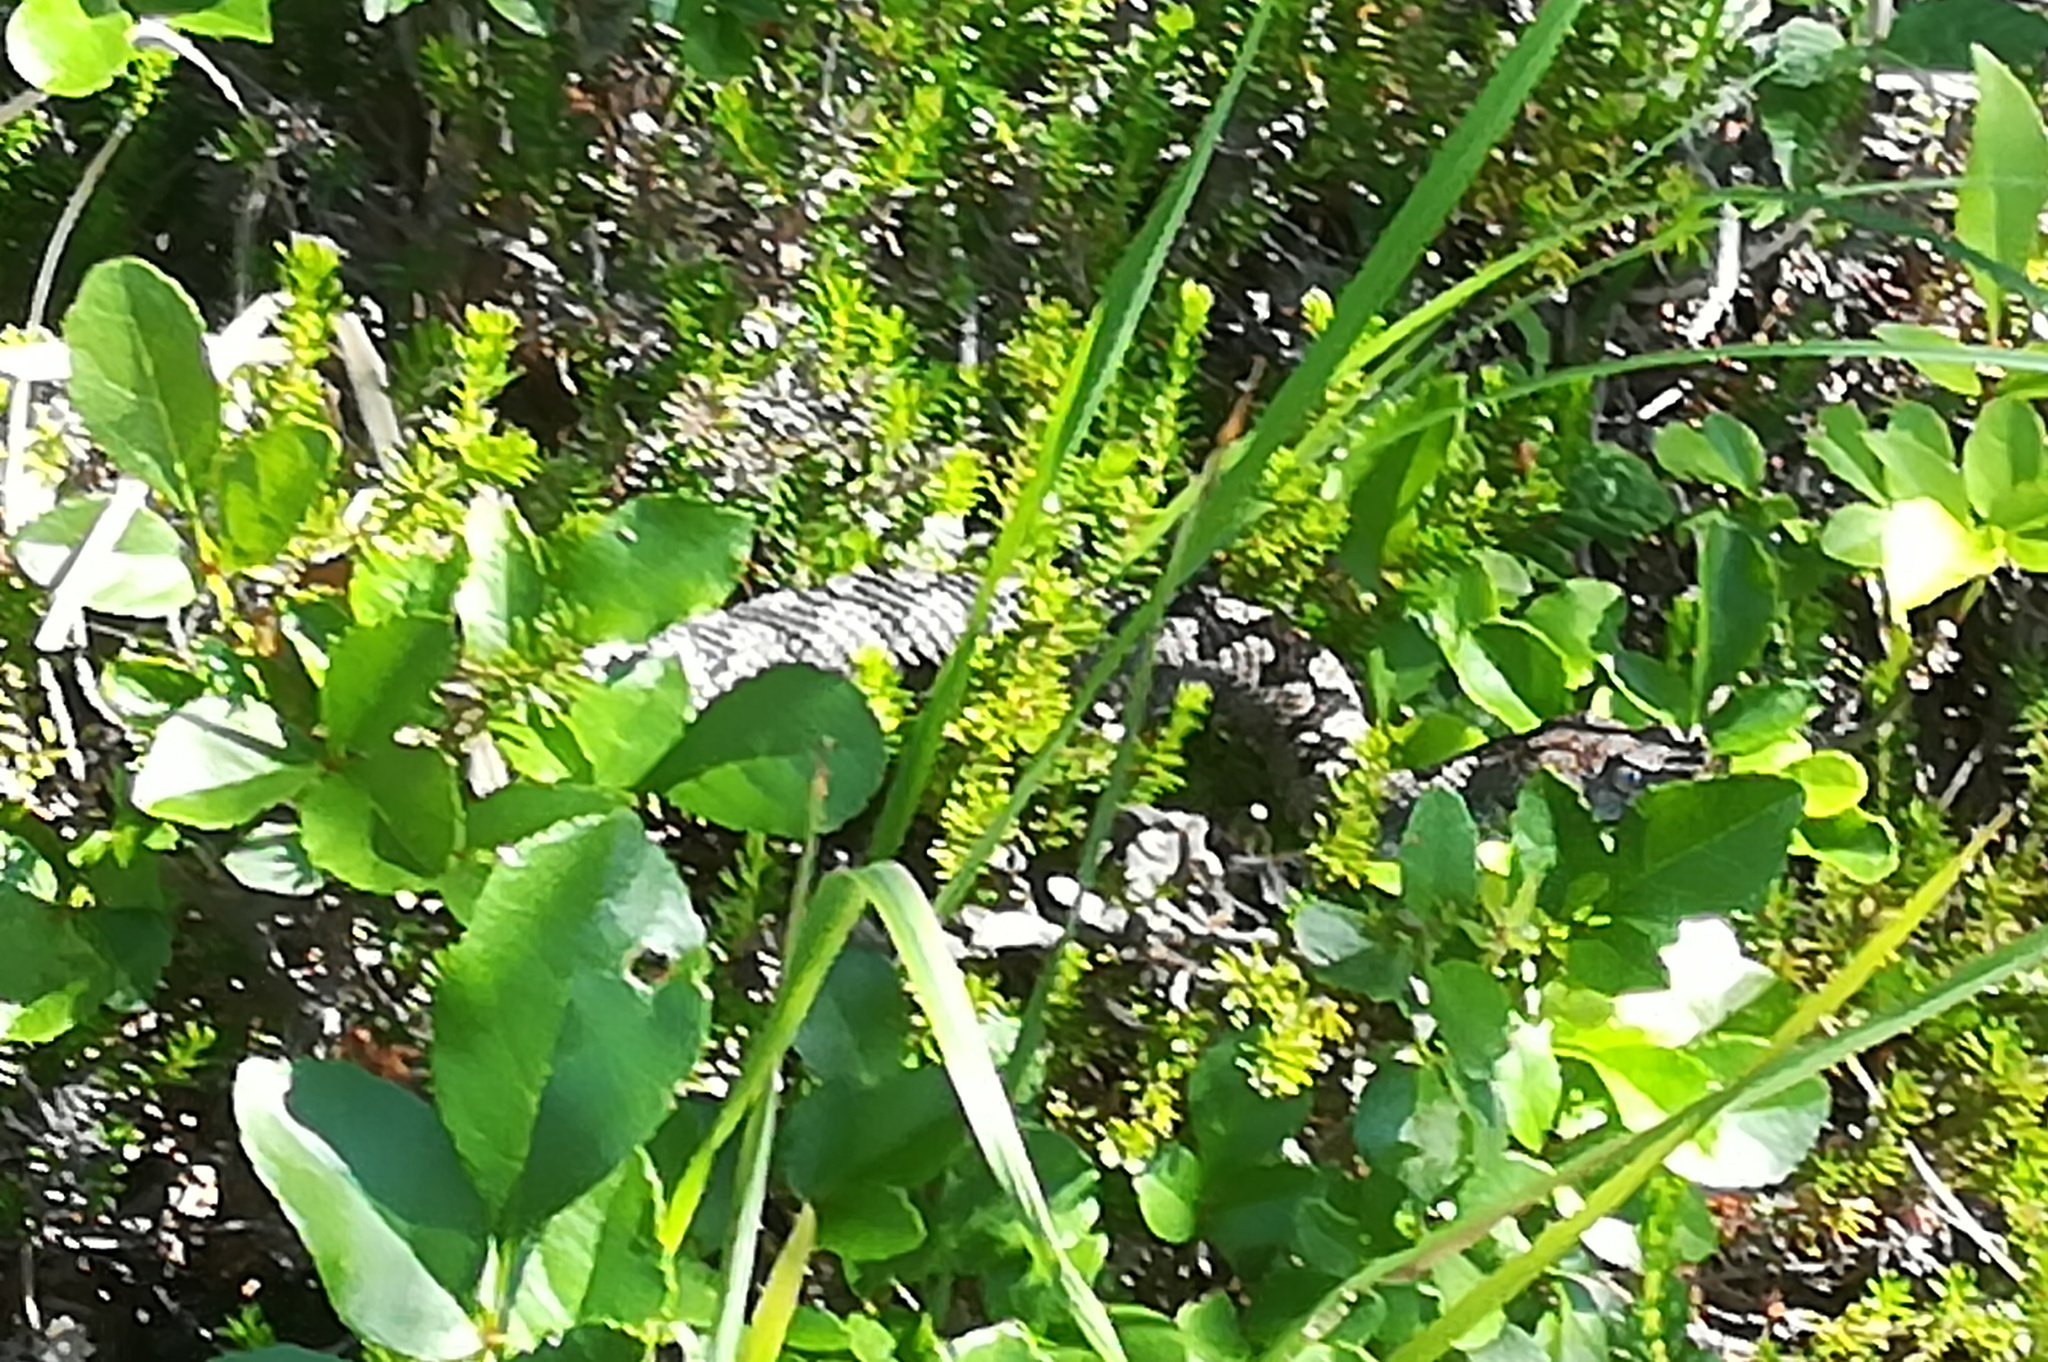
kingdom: Animalia
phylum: Chordata
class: Squamata
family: Viperidae
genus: Vipera
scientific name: Vipera ammodytes
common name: Sand viper
